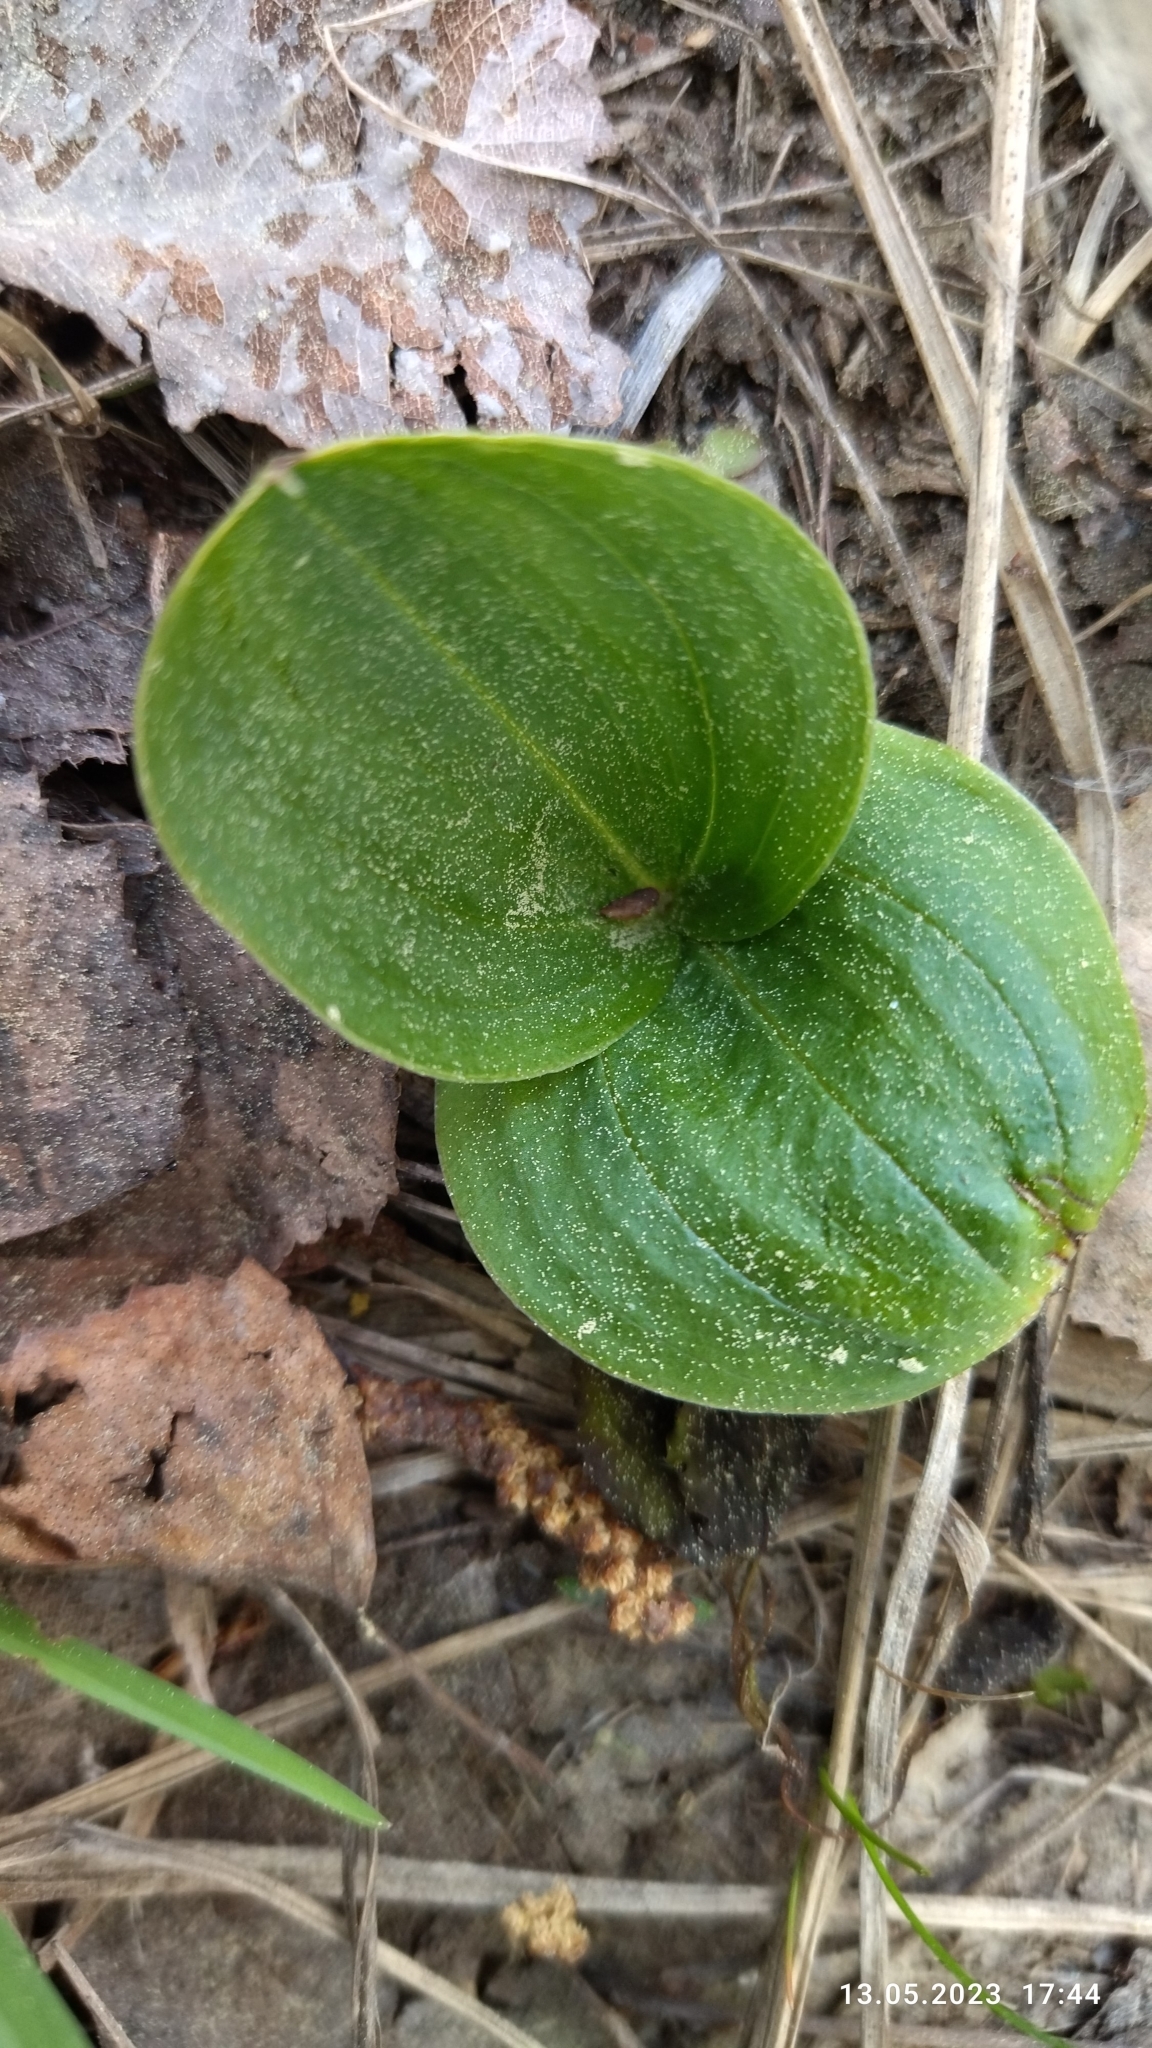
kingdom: Plantae
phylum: Tracheophyta
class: Liliopsida
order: Asparagales
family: Orchidaceae
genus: Neottia
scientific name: Neottia ovata
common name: Common twayblade
